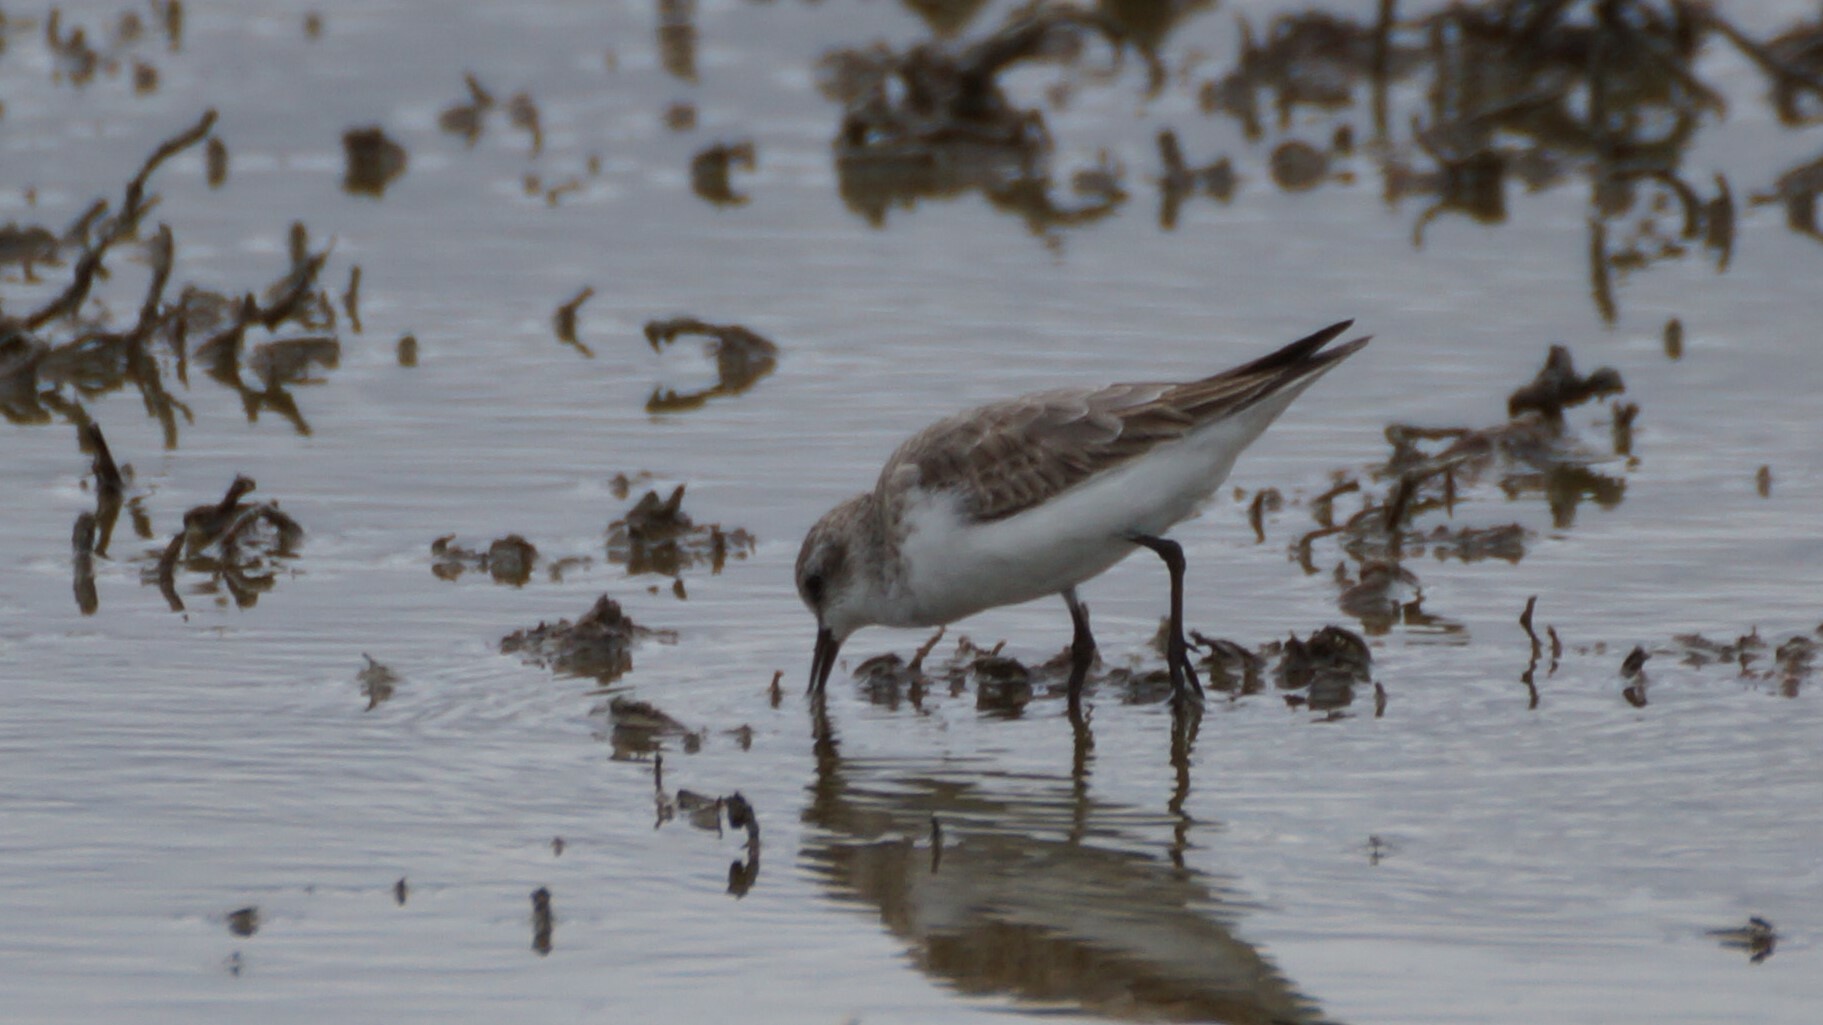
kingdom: Animalia
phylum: Chordata
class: Aves
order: Charadriiformes
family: Scolopacidae
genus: Calidris
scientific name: Calidris ruficollis
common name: Red-necked stint
